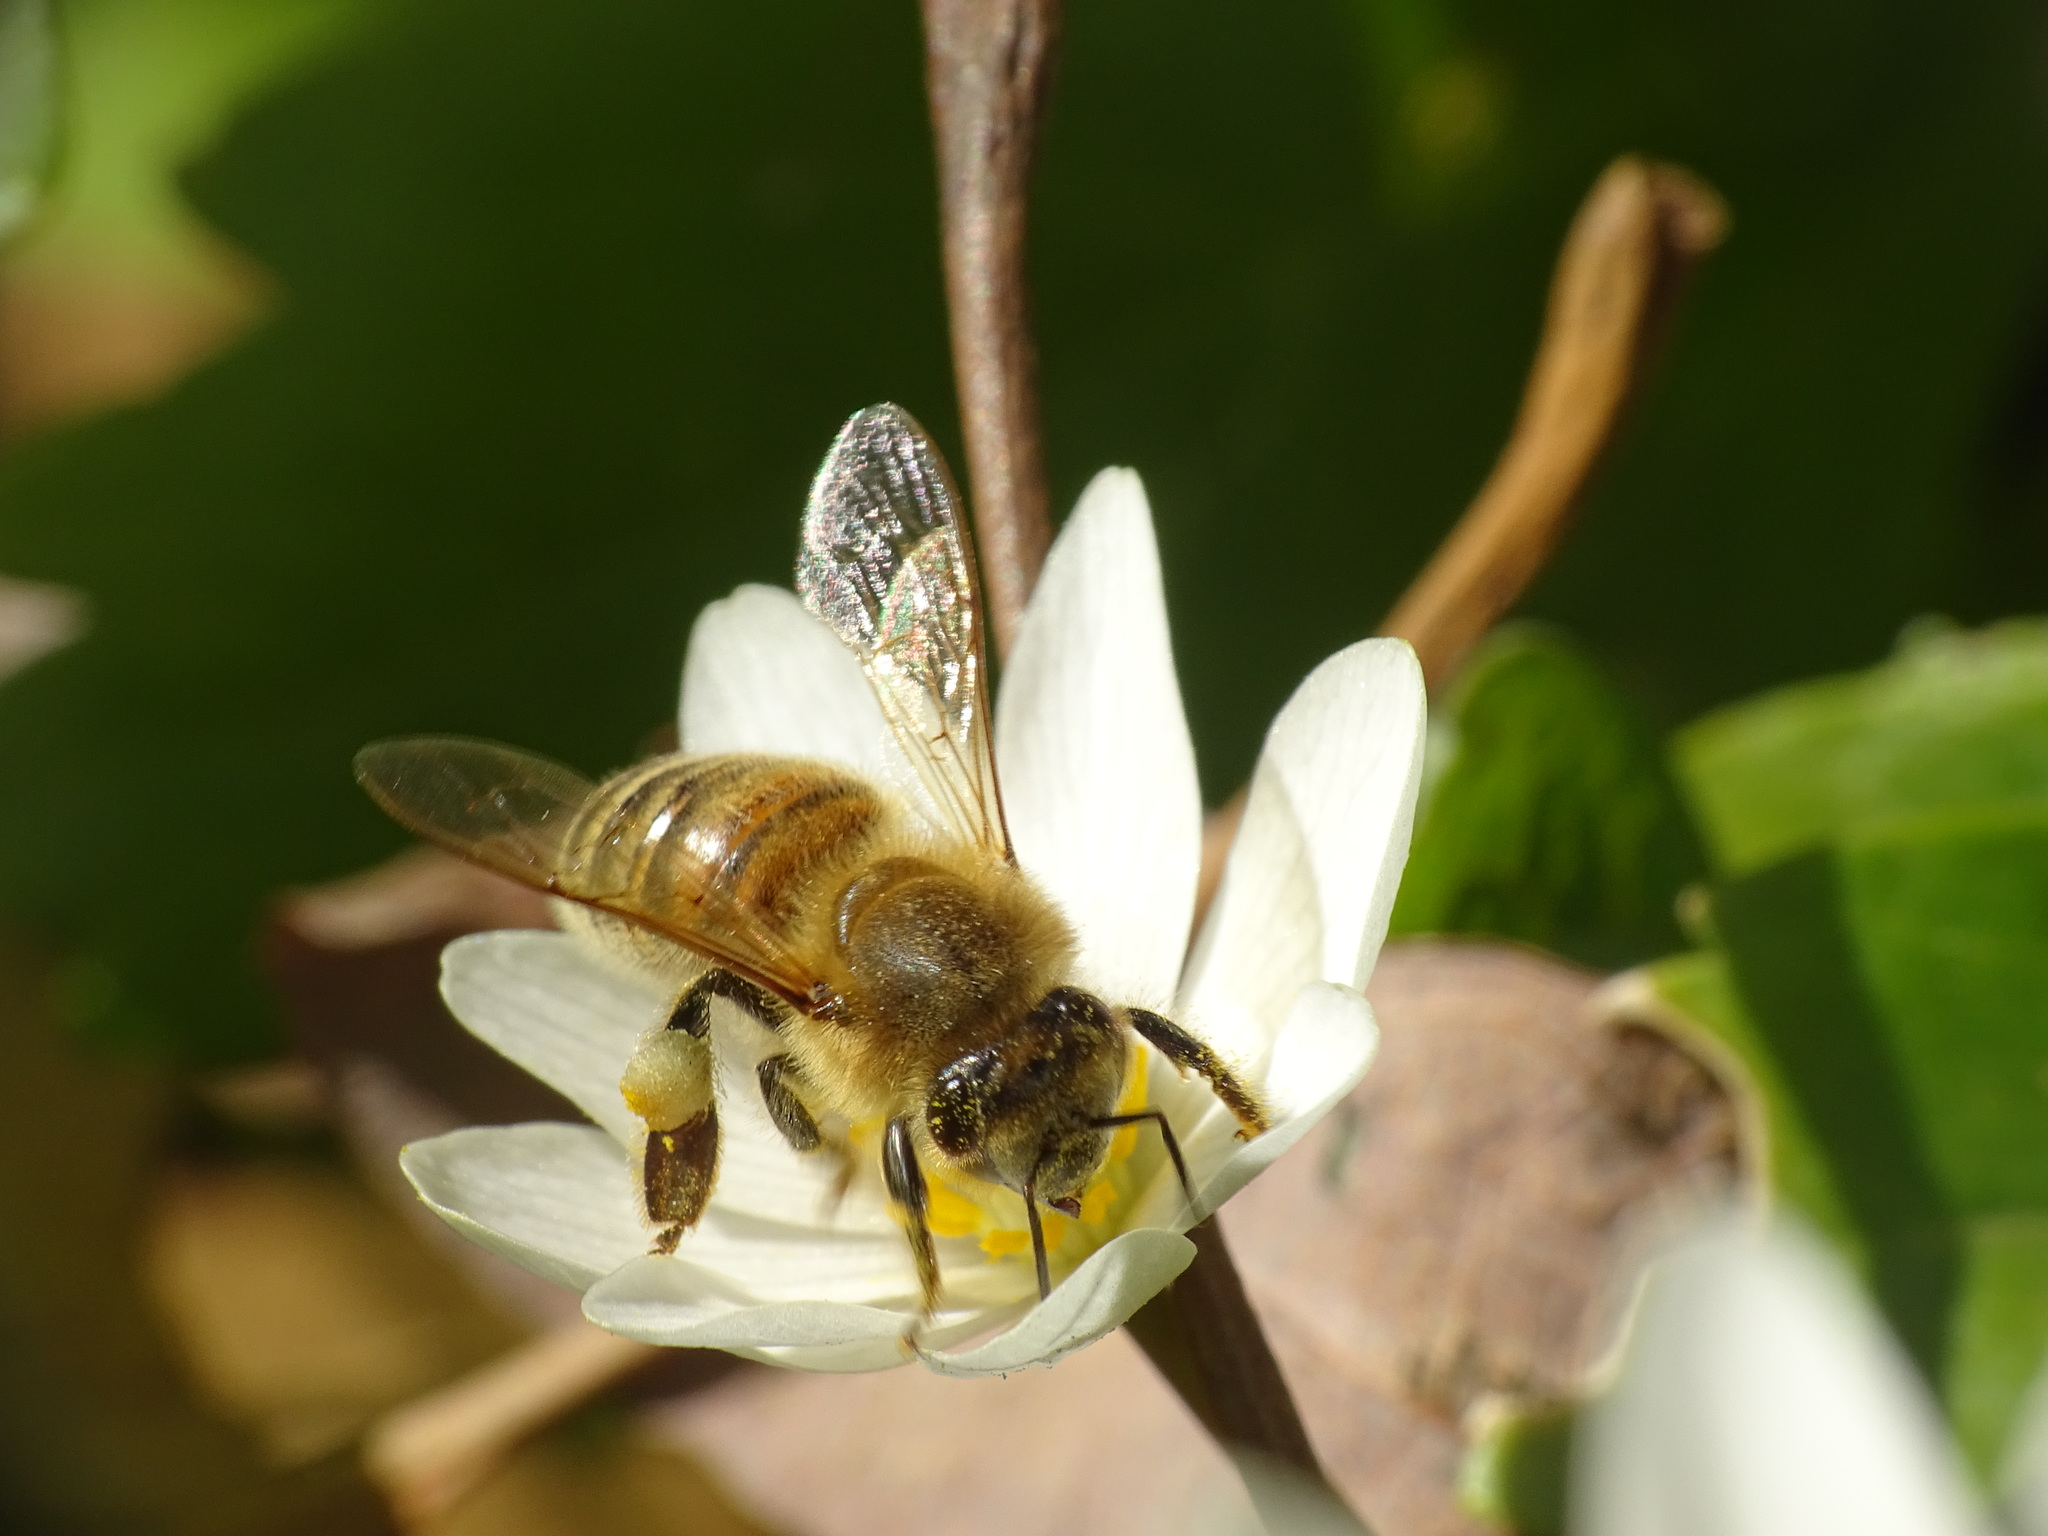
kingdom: Animalia
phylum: Arthropoda
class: Insecta
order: Hymenoptera
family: Apidae
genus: Apis
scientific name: Apis mellifera
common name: Honey bee
